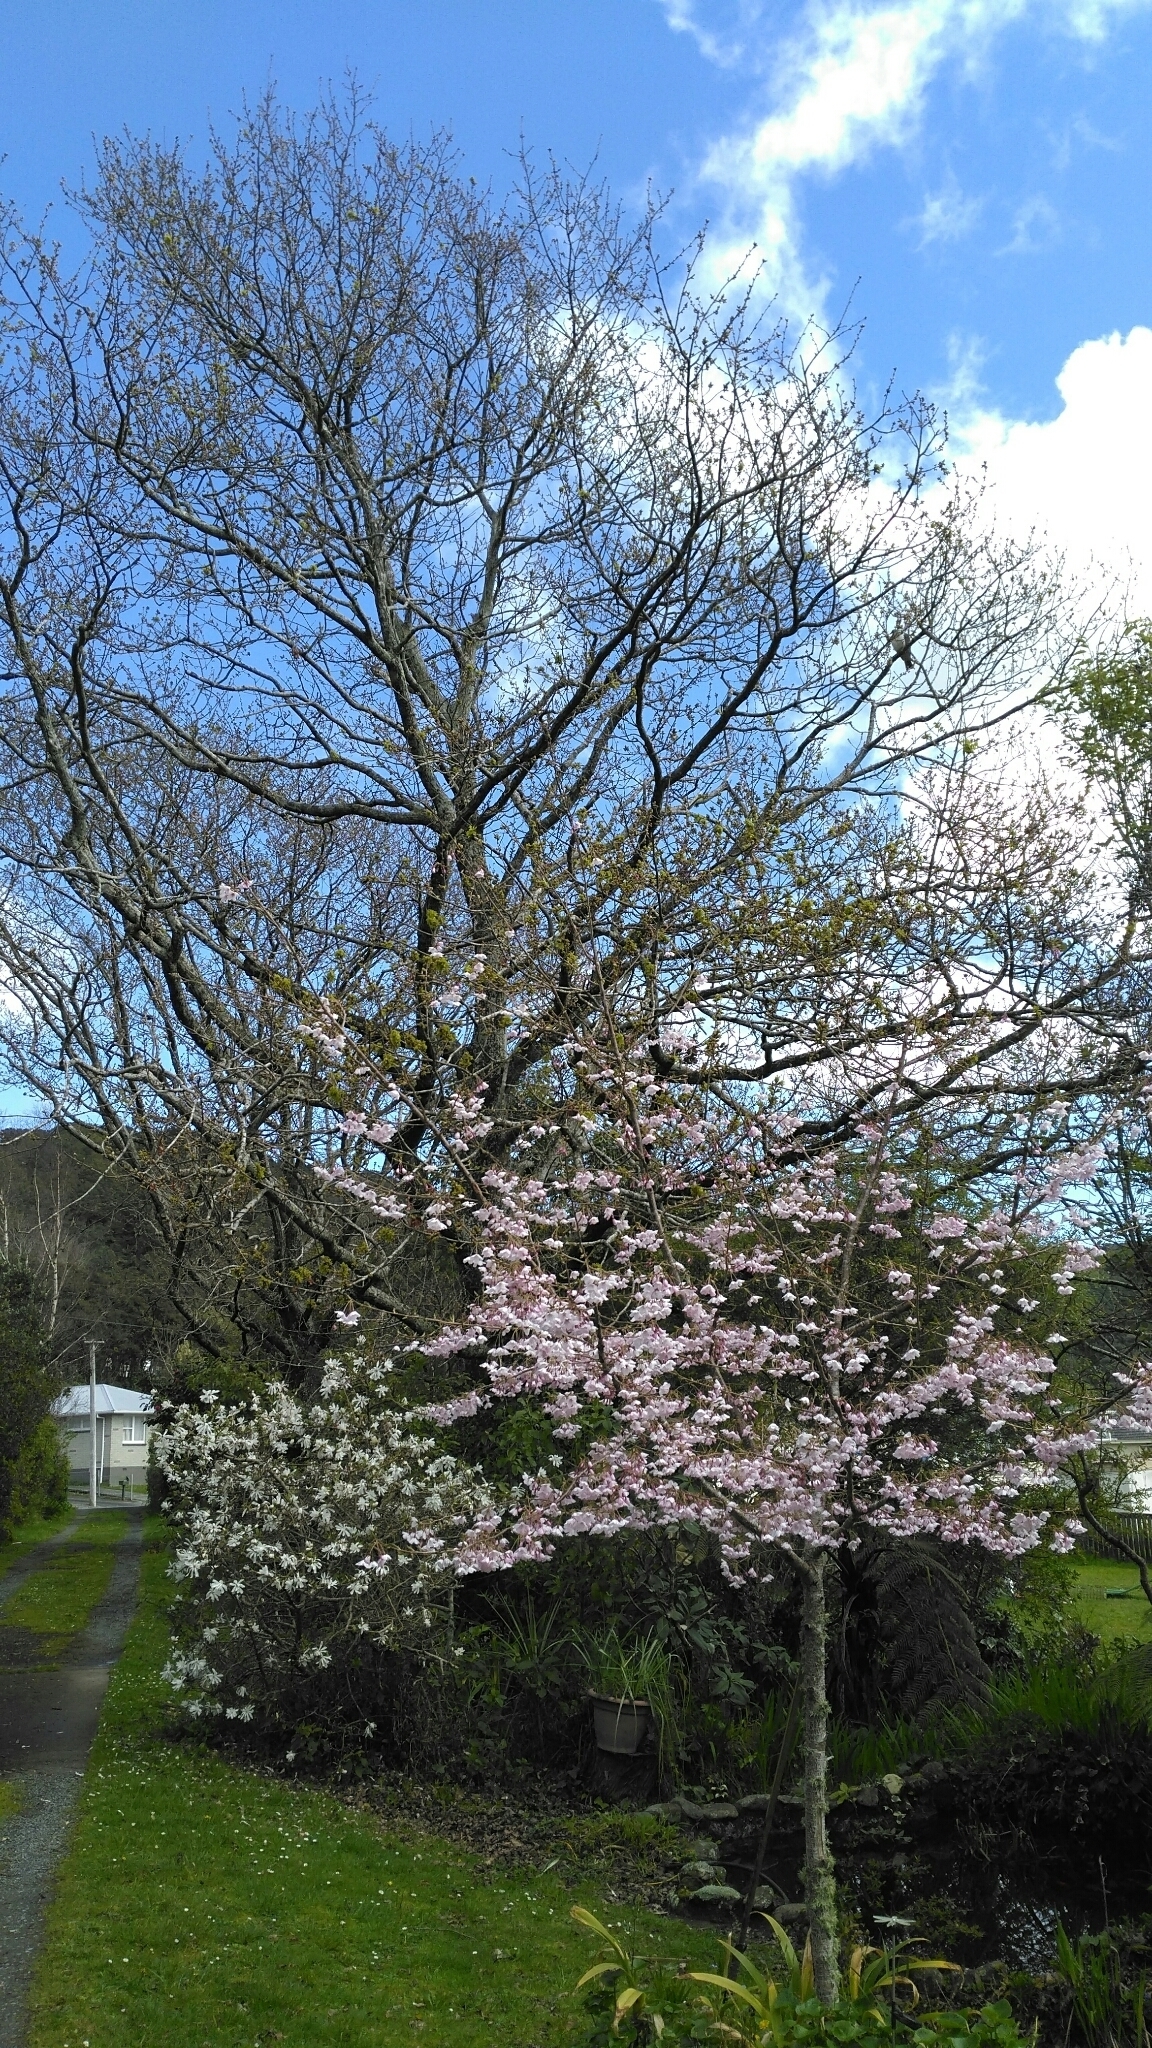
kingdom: Animalia
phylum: Chordata
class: Aves
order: Columbiformes
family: Columbidae
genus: Hemiphaga
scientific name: Hemiphaga novaeseelandiae
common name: New zealand pigeon
